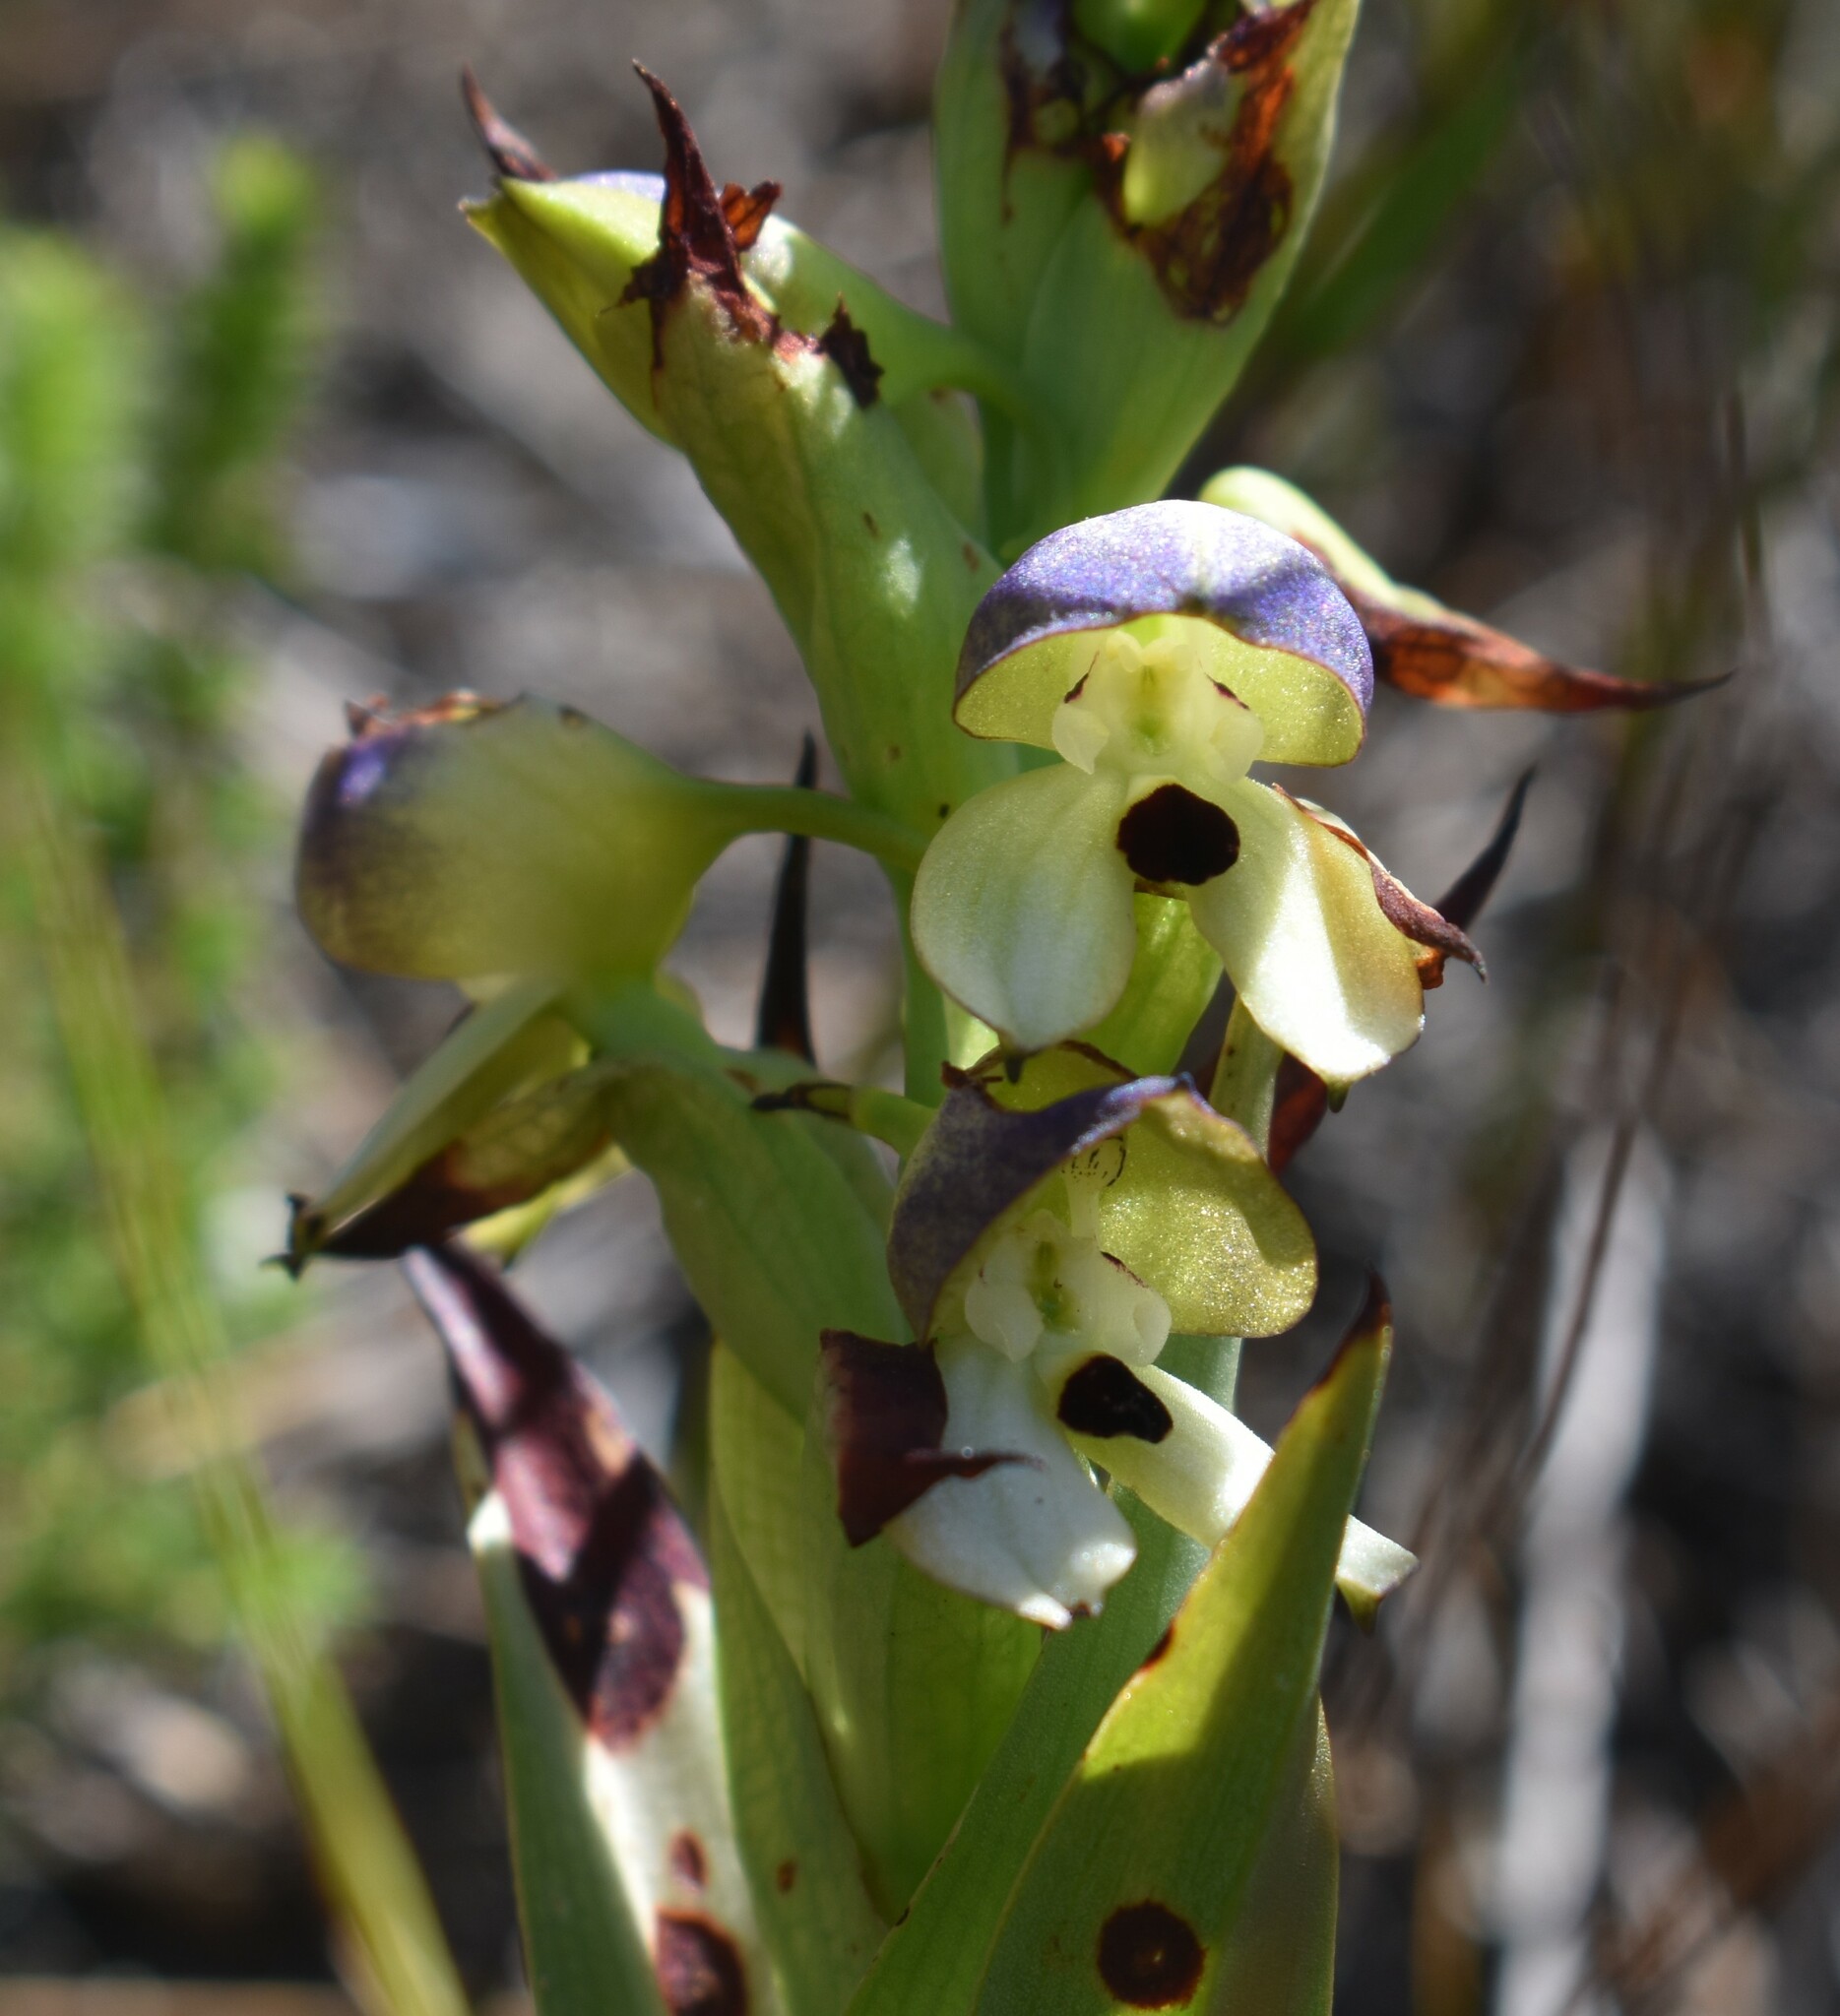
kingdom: Plantae
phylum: Tracheophyta
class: Liliopsida
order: Asparagales
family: Orchidaceae
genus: Disa
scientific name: Disa cornuta
